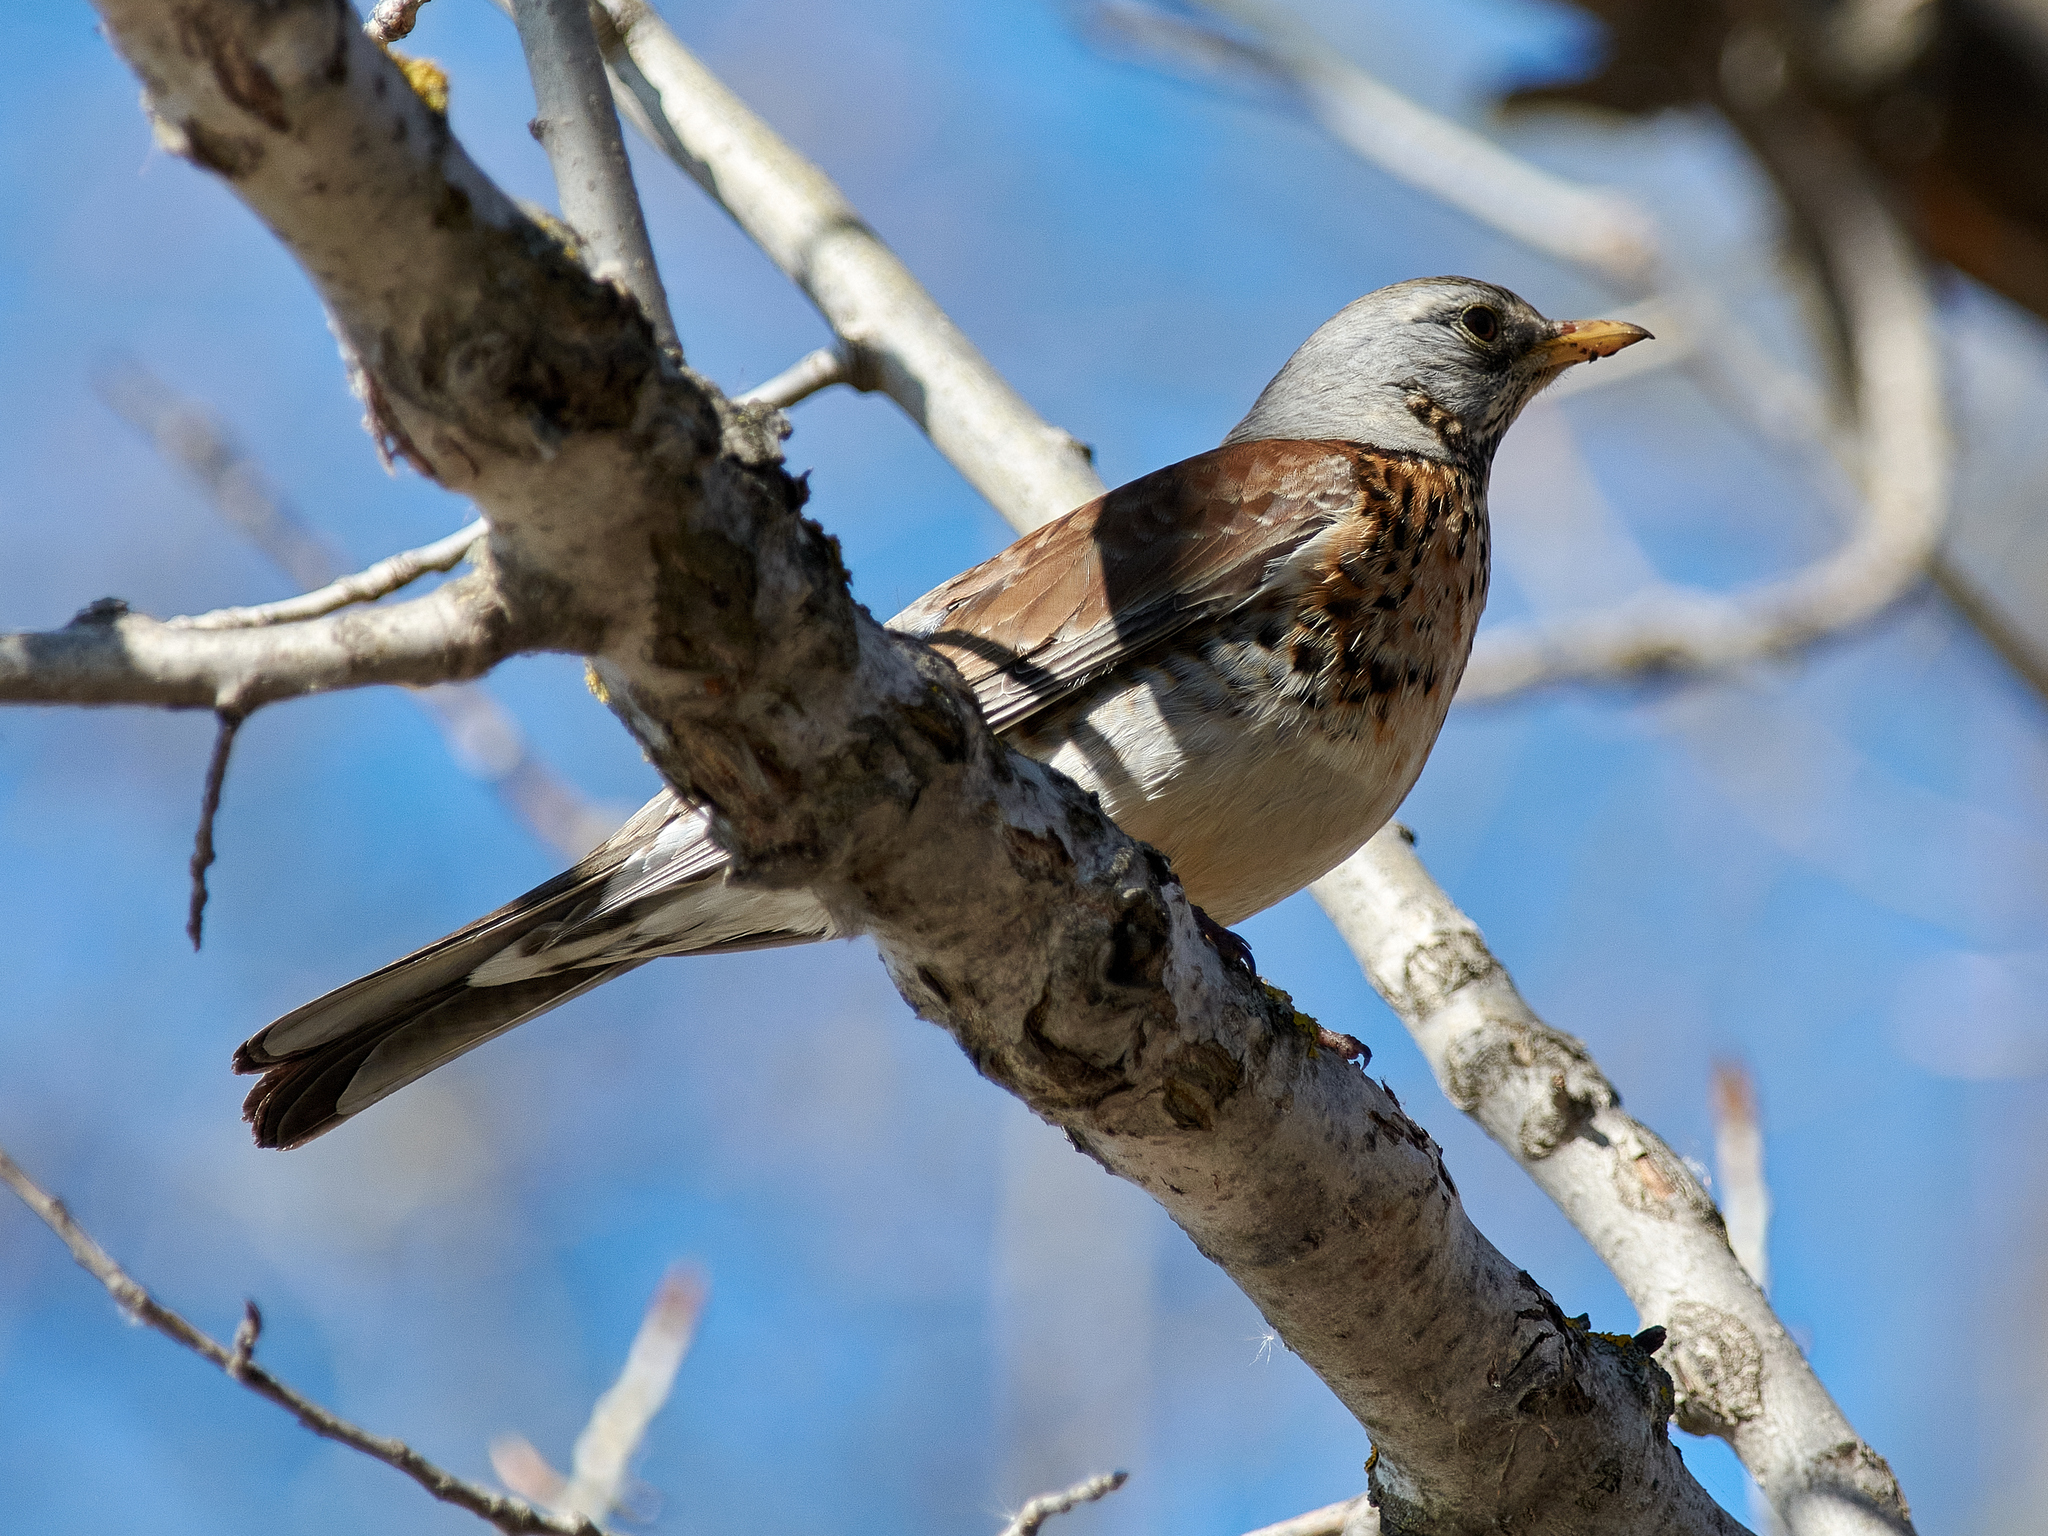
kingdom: Animalia
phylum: Chordata
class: Aves
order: Passeriformes
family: Turdidae
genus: Turdus
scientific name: Turdus pilaris
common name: Fieldfare
